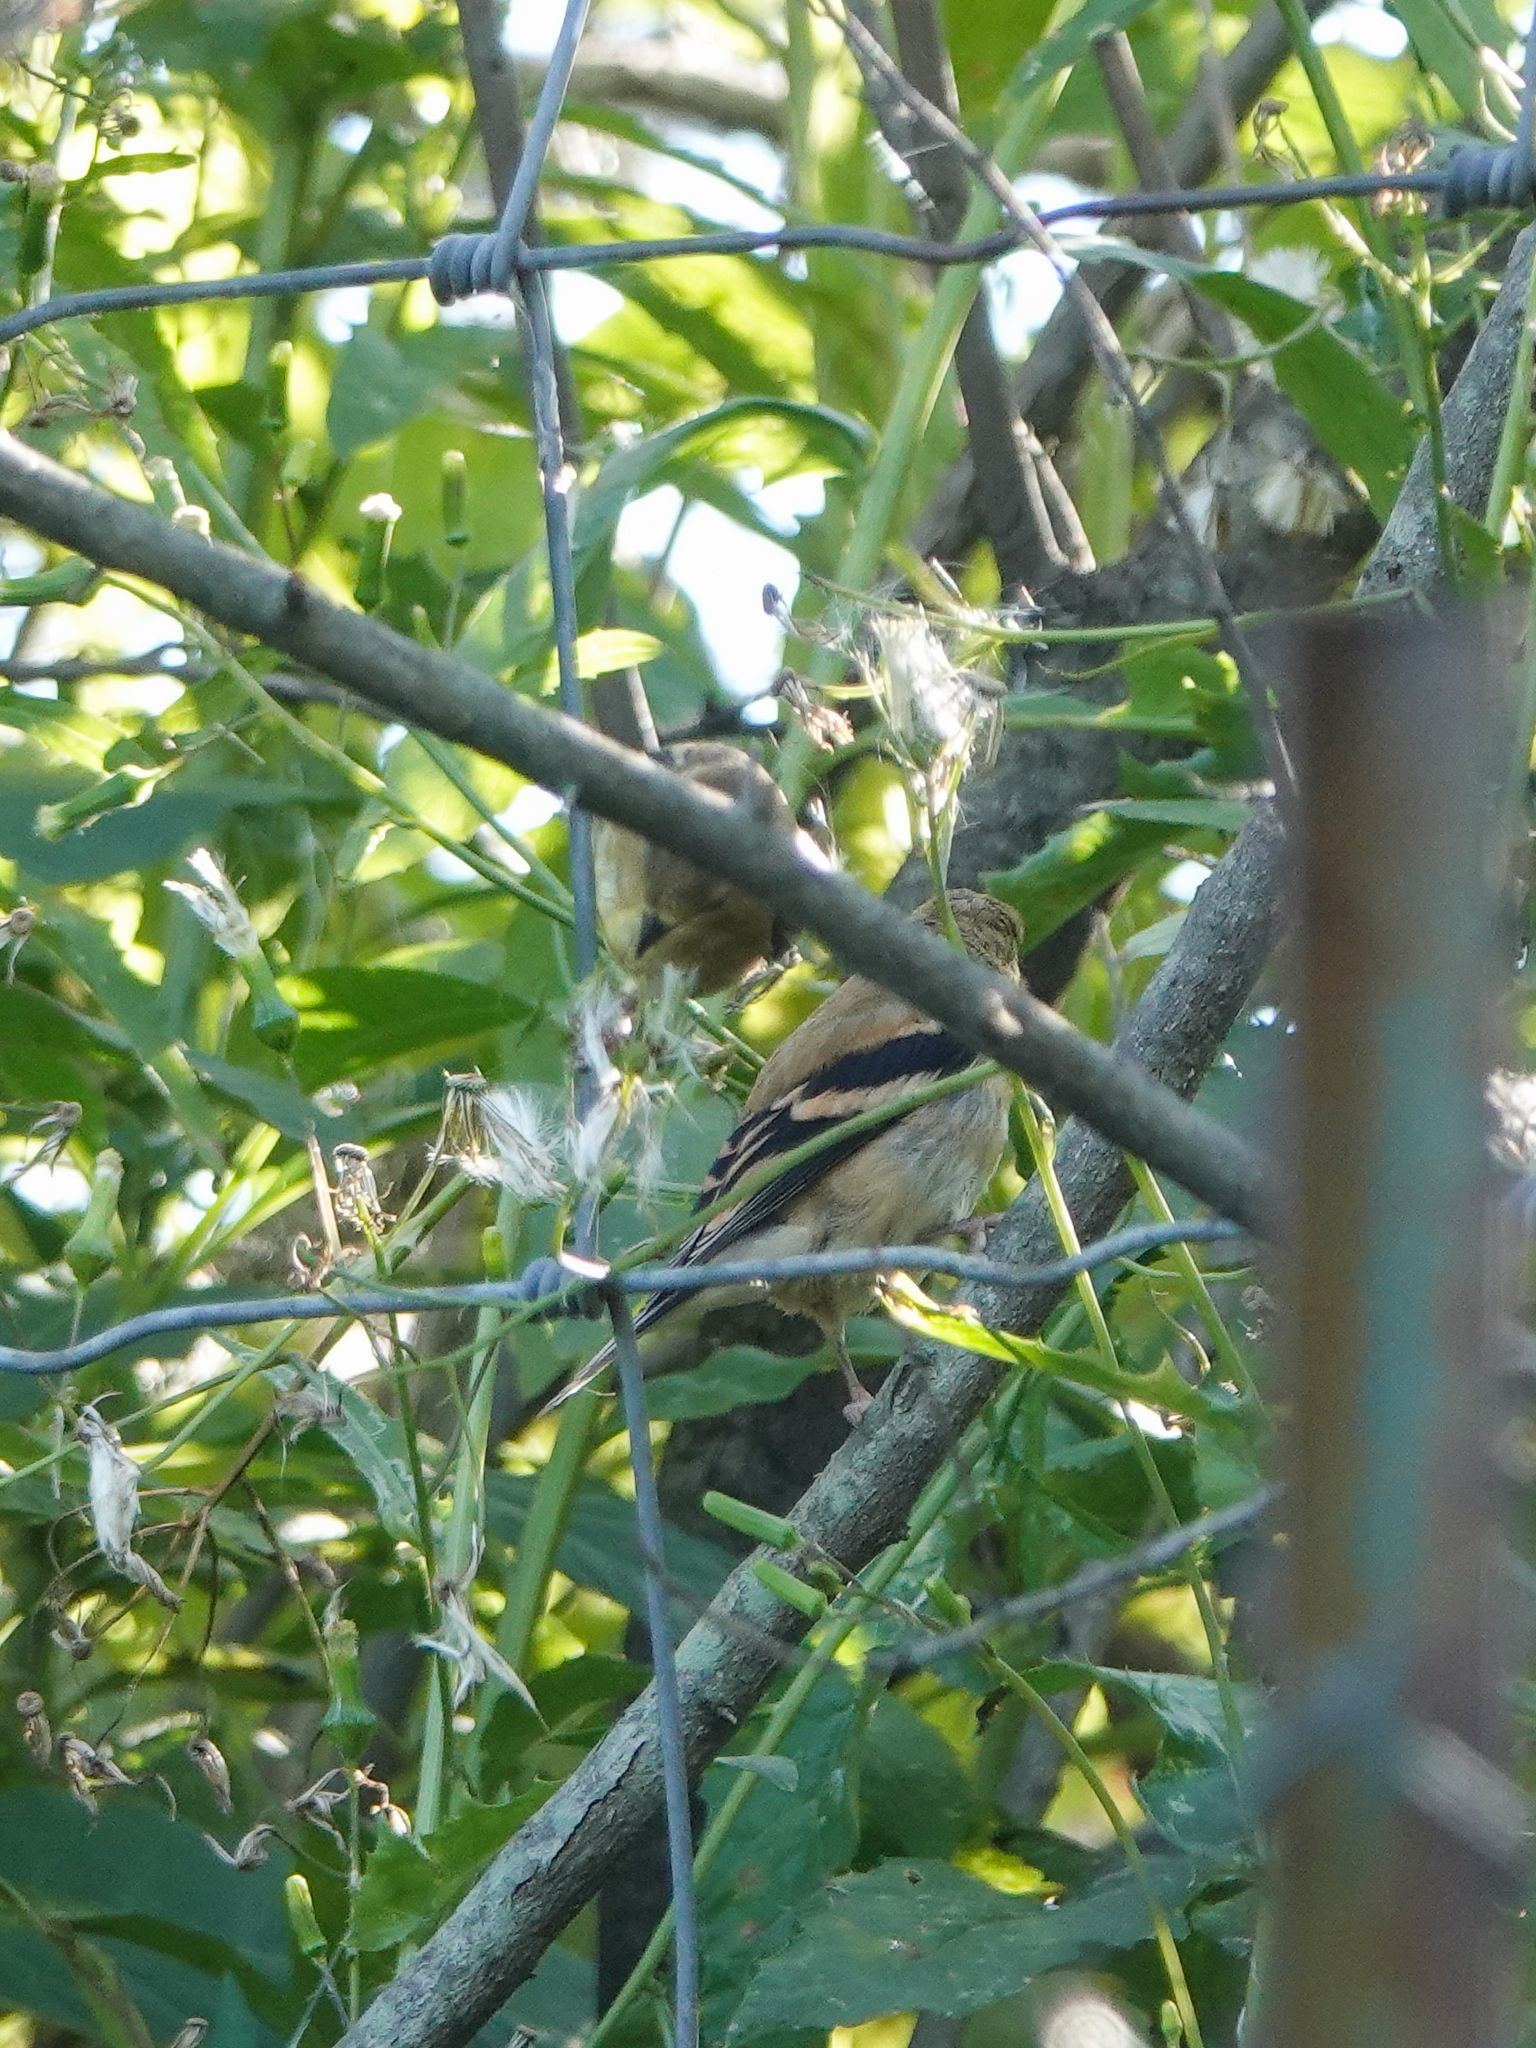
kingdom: Animalia
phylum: Chordata
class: Aves
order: Passeriformes
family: Fringillidae
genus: Spinus
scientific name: Spinus tristis
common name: American goldfinch
